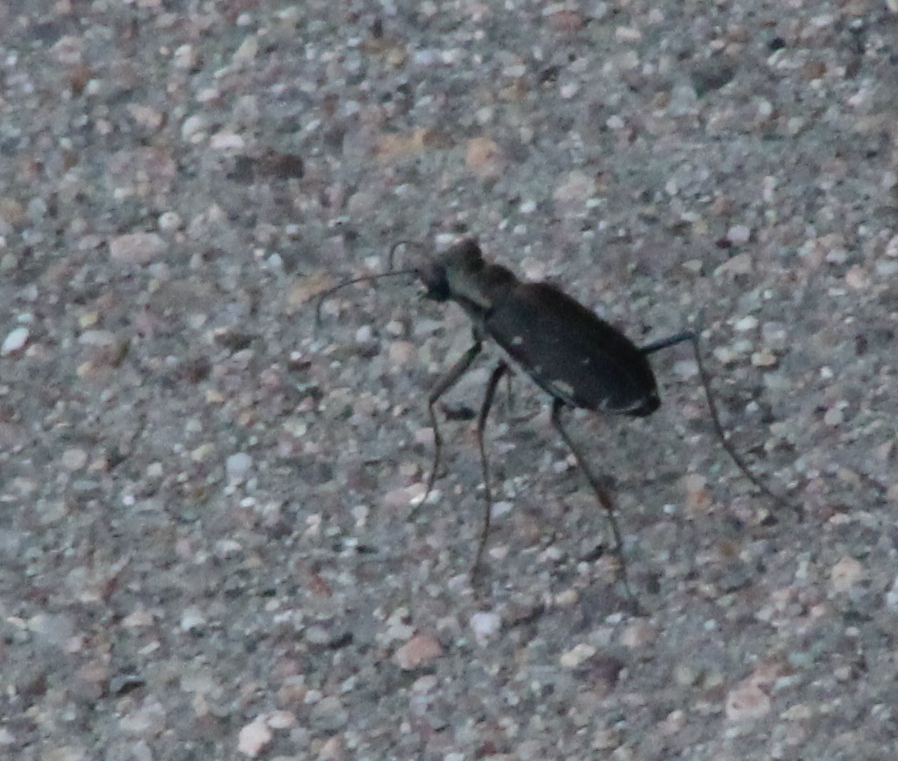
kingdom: Animalia
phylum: Arthropoda
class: Insecta
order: Coleoptera
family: Carabidae
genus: Cicindela
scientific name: Cicindela punctulata
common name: Punctured tiger beetle
